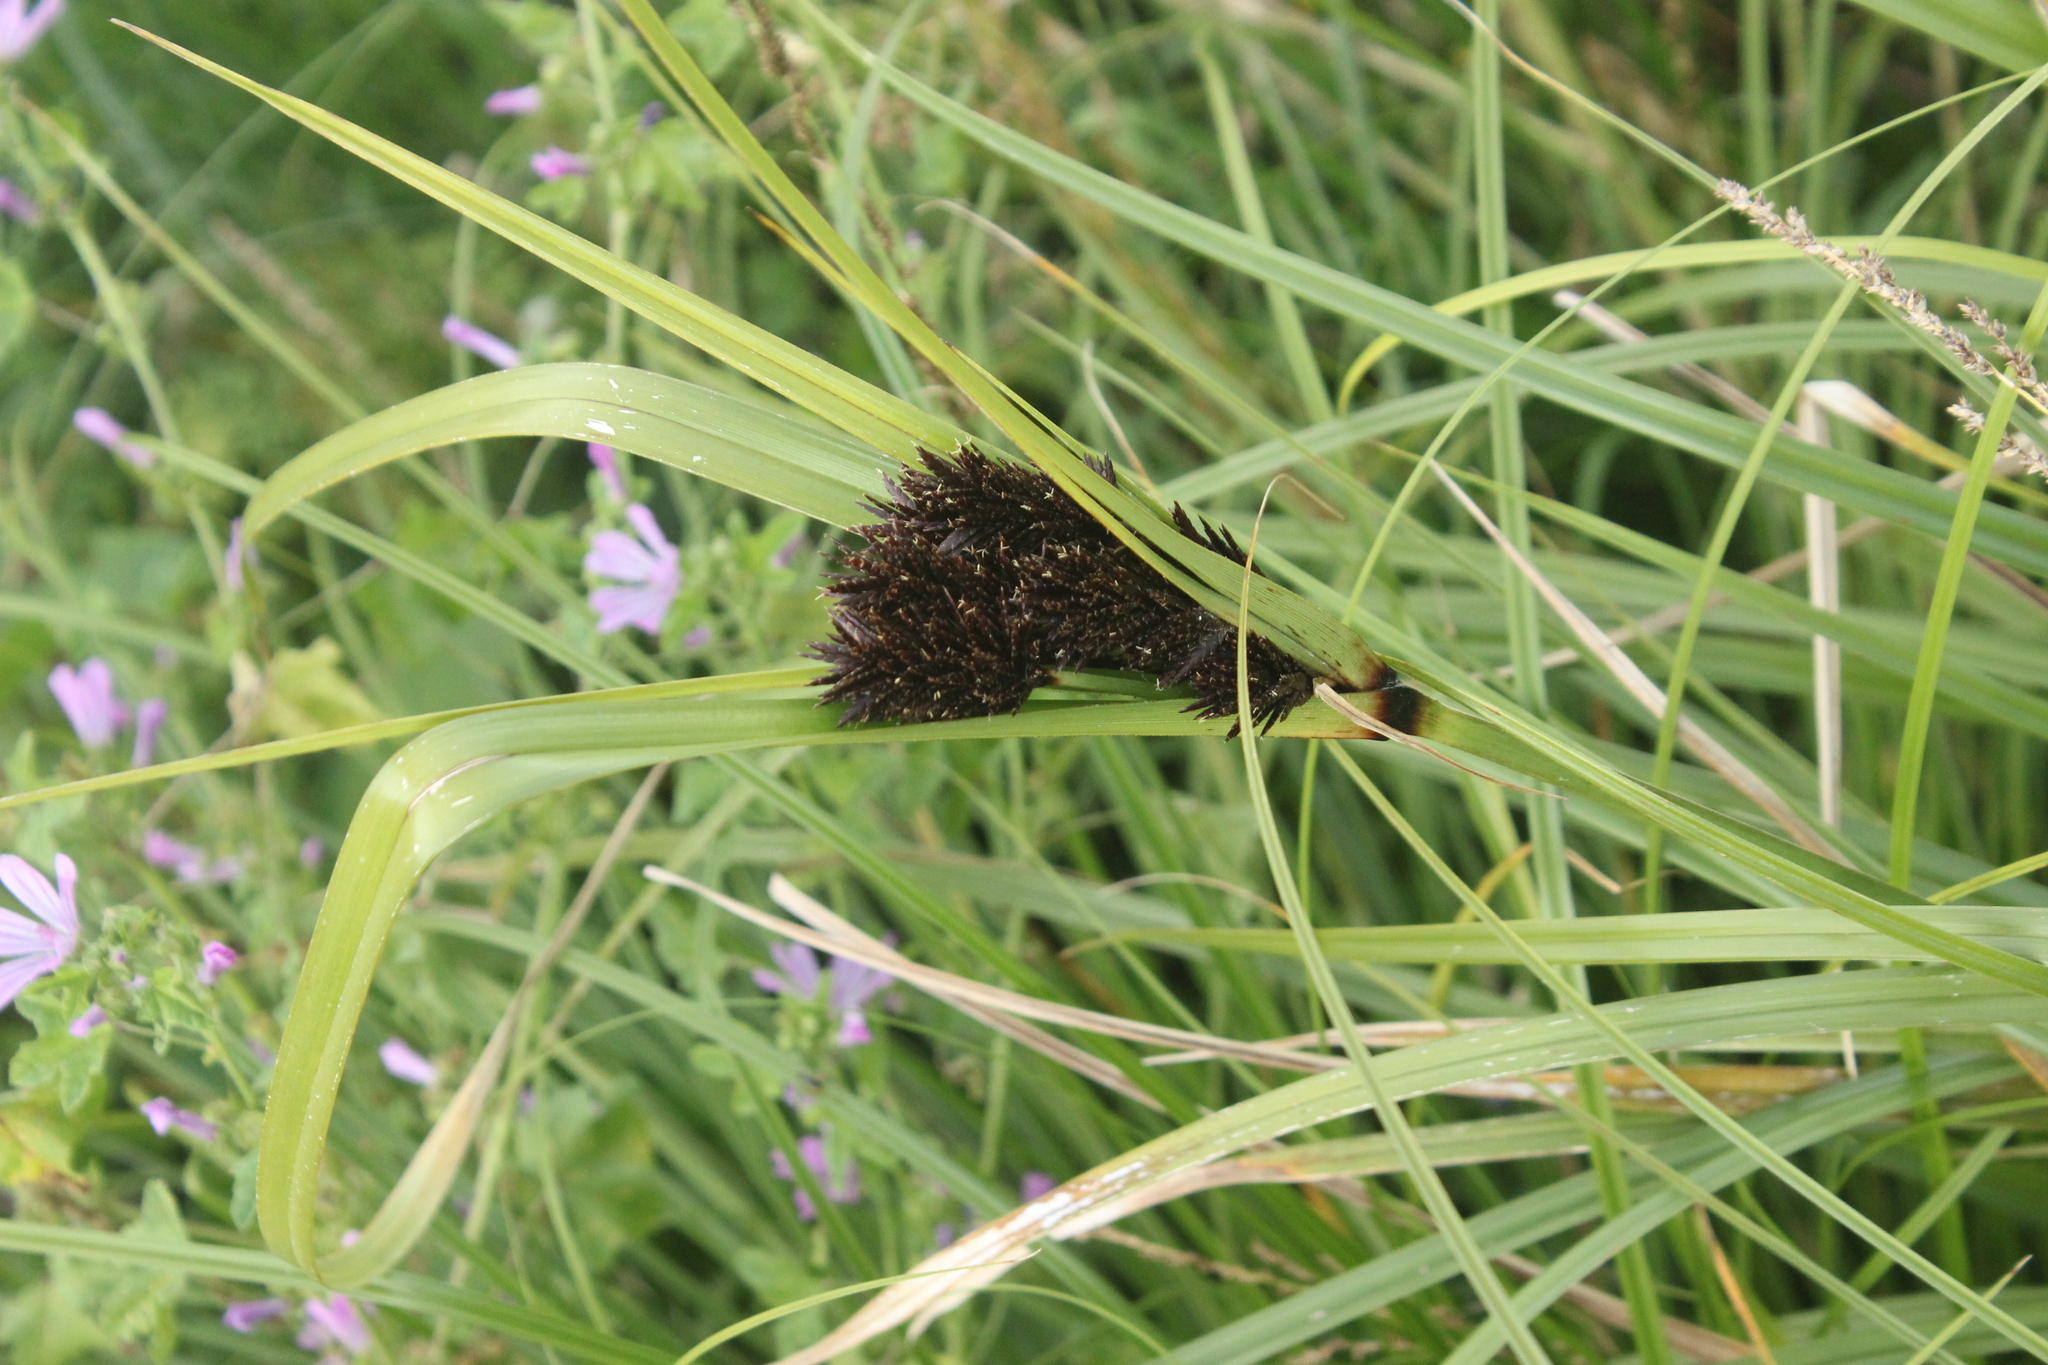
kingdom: Plantae
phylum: Tracheophyta
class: Liliopsida
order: Poales
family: Cyperaceae
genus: Cyperus
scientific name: Cyperus ustulatus
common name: Giant umbrella-sedge
